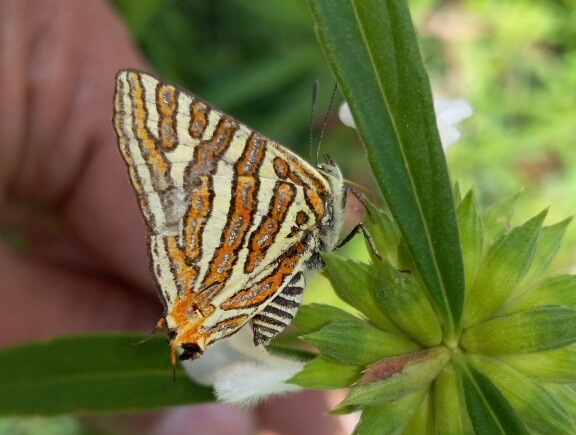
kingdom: Animalia
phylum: Arthropoda
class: Insecta
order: Lepidoptera
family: Lycaenidae
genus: Cigaritis
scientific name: Cigaritis vulcanus
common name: Common silverline
